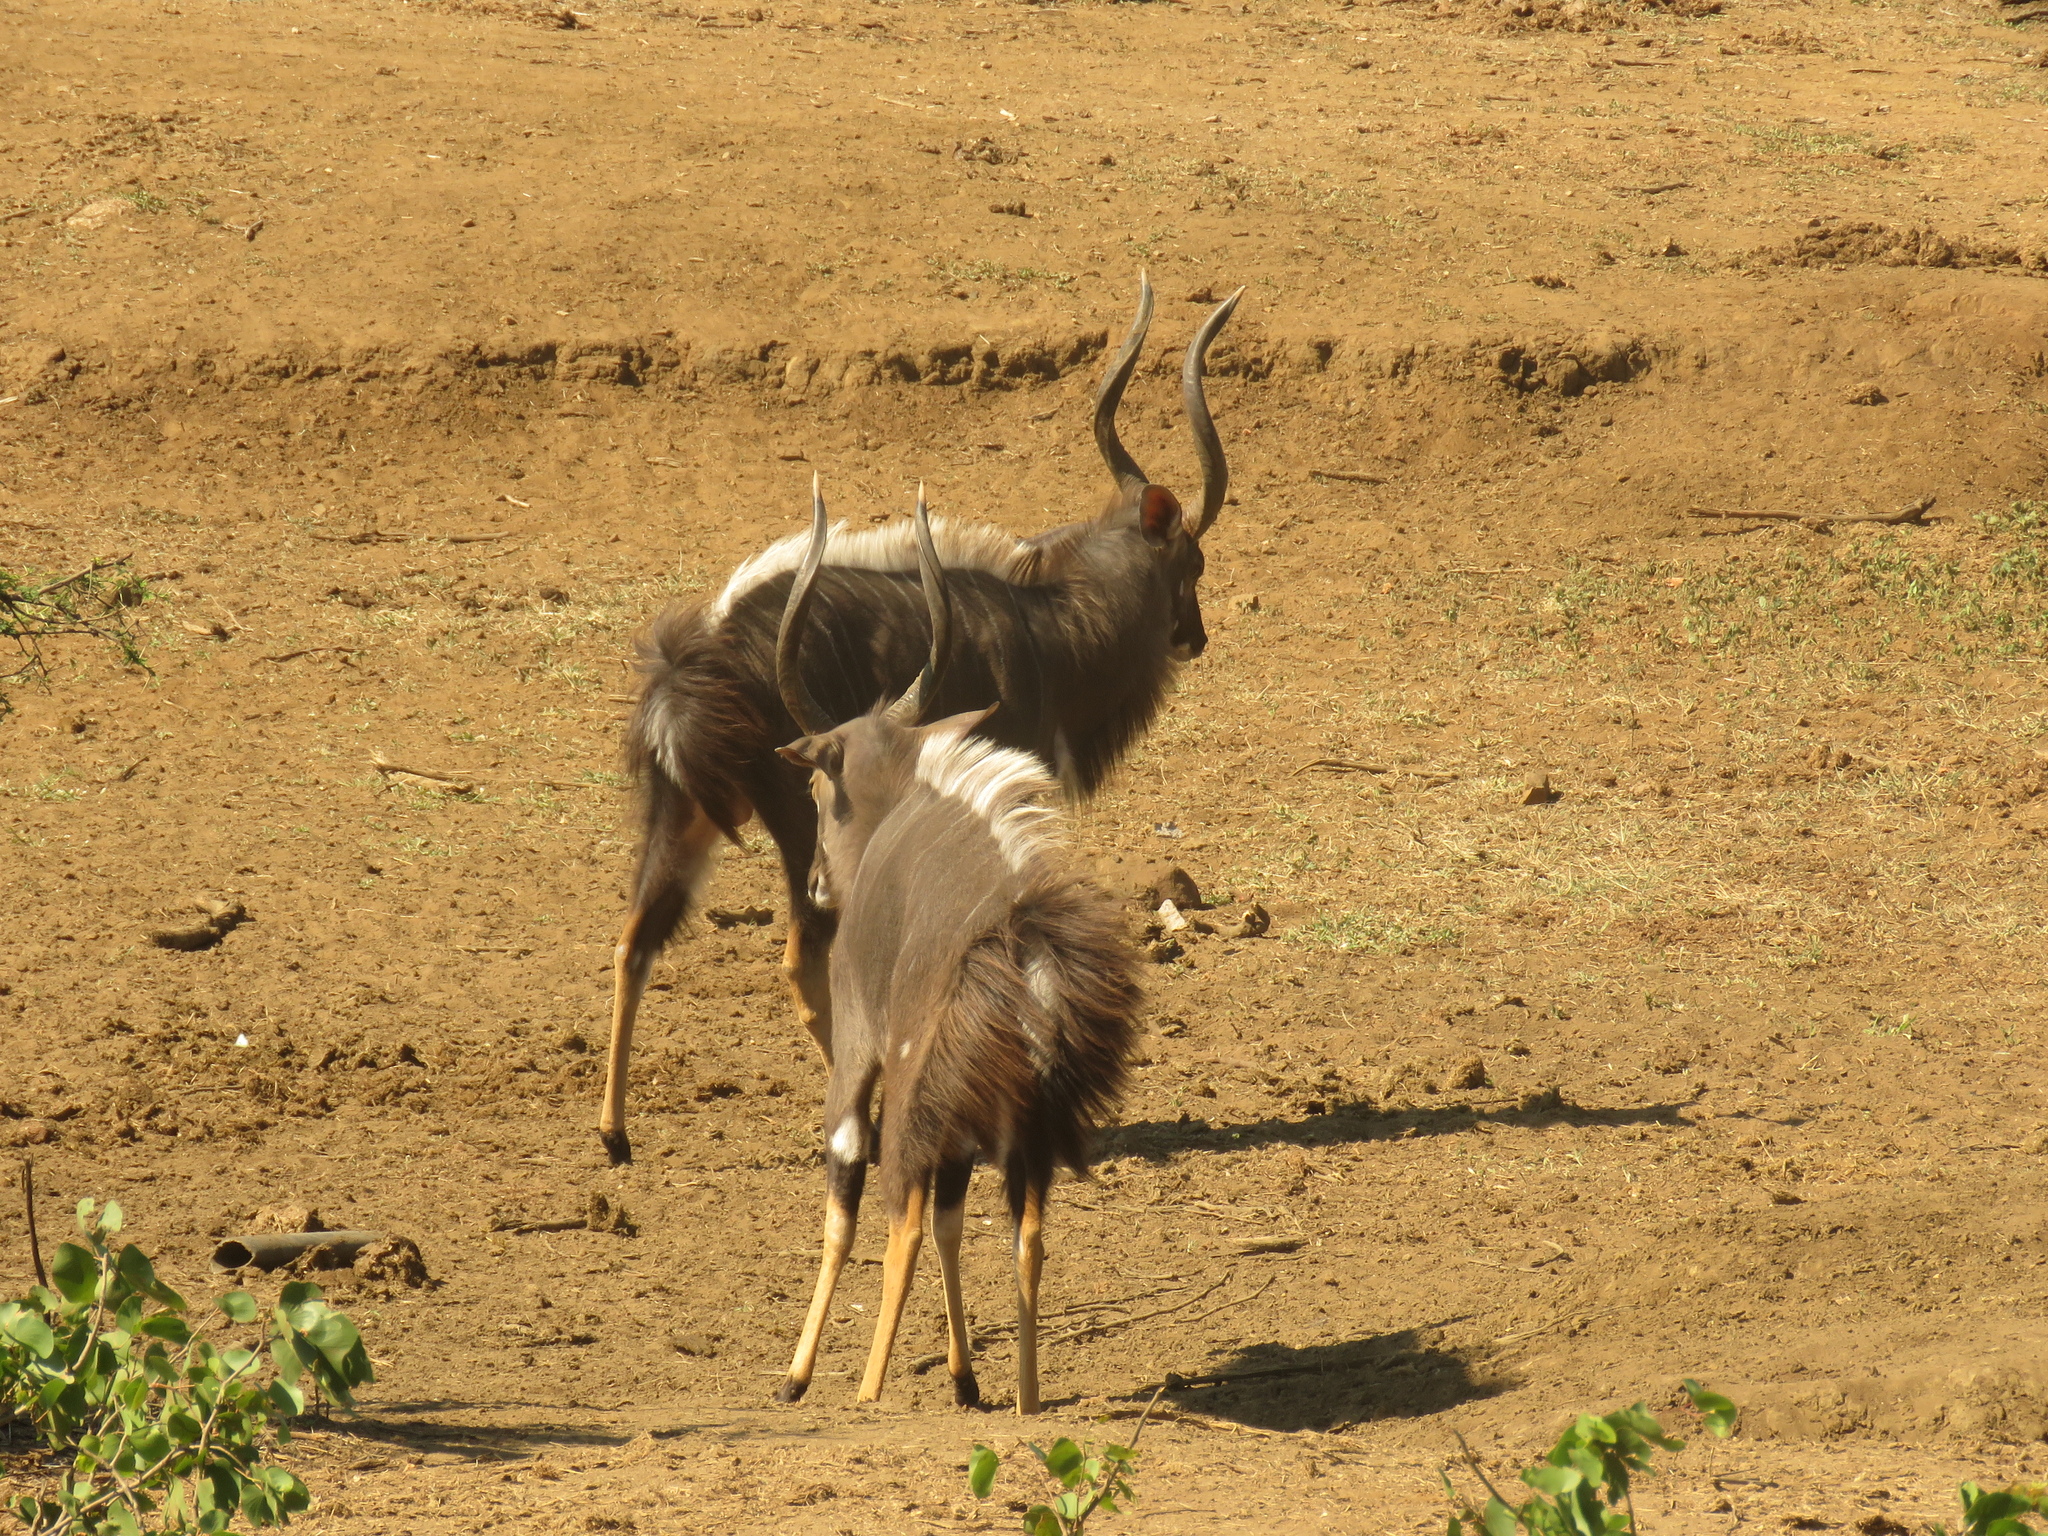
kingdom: Animalia
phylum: Chordata
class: Mammalia
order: Artiodactyla
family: Bovidae
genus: Tragelaphus
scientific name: Tragelaphus angasii
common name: Nyala
